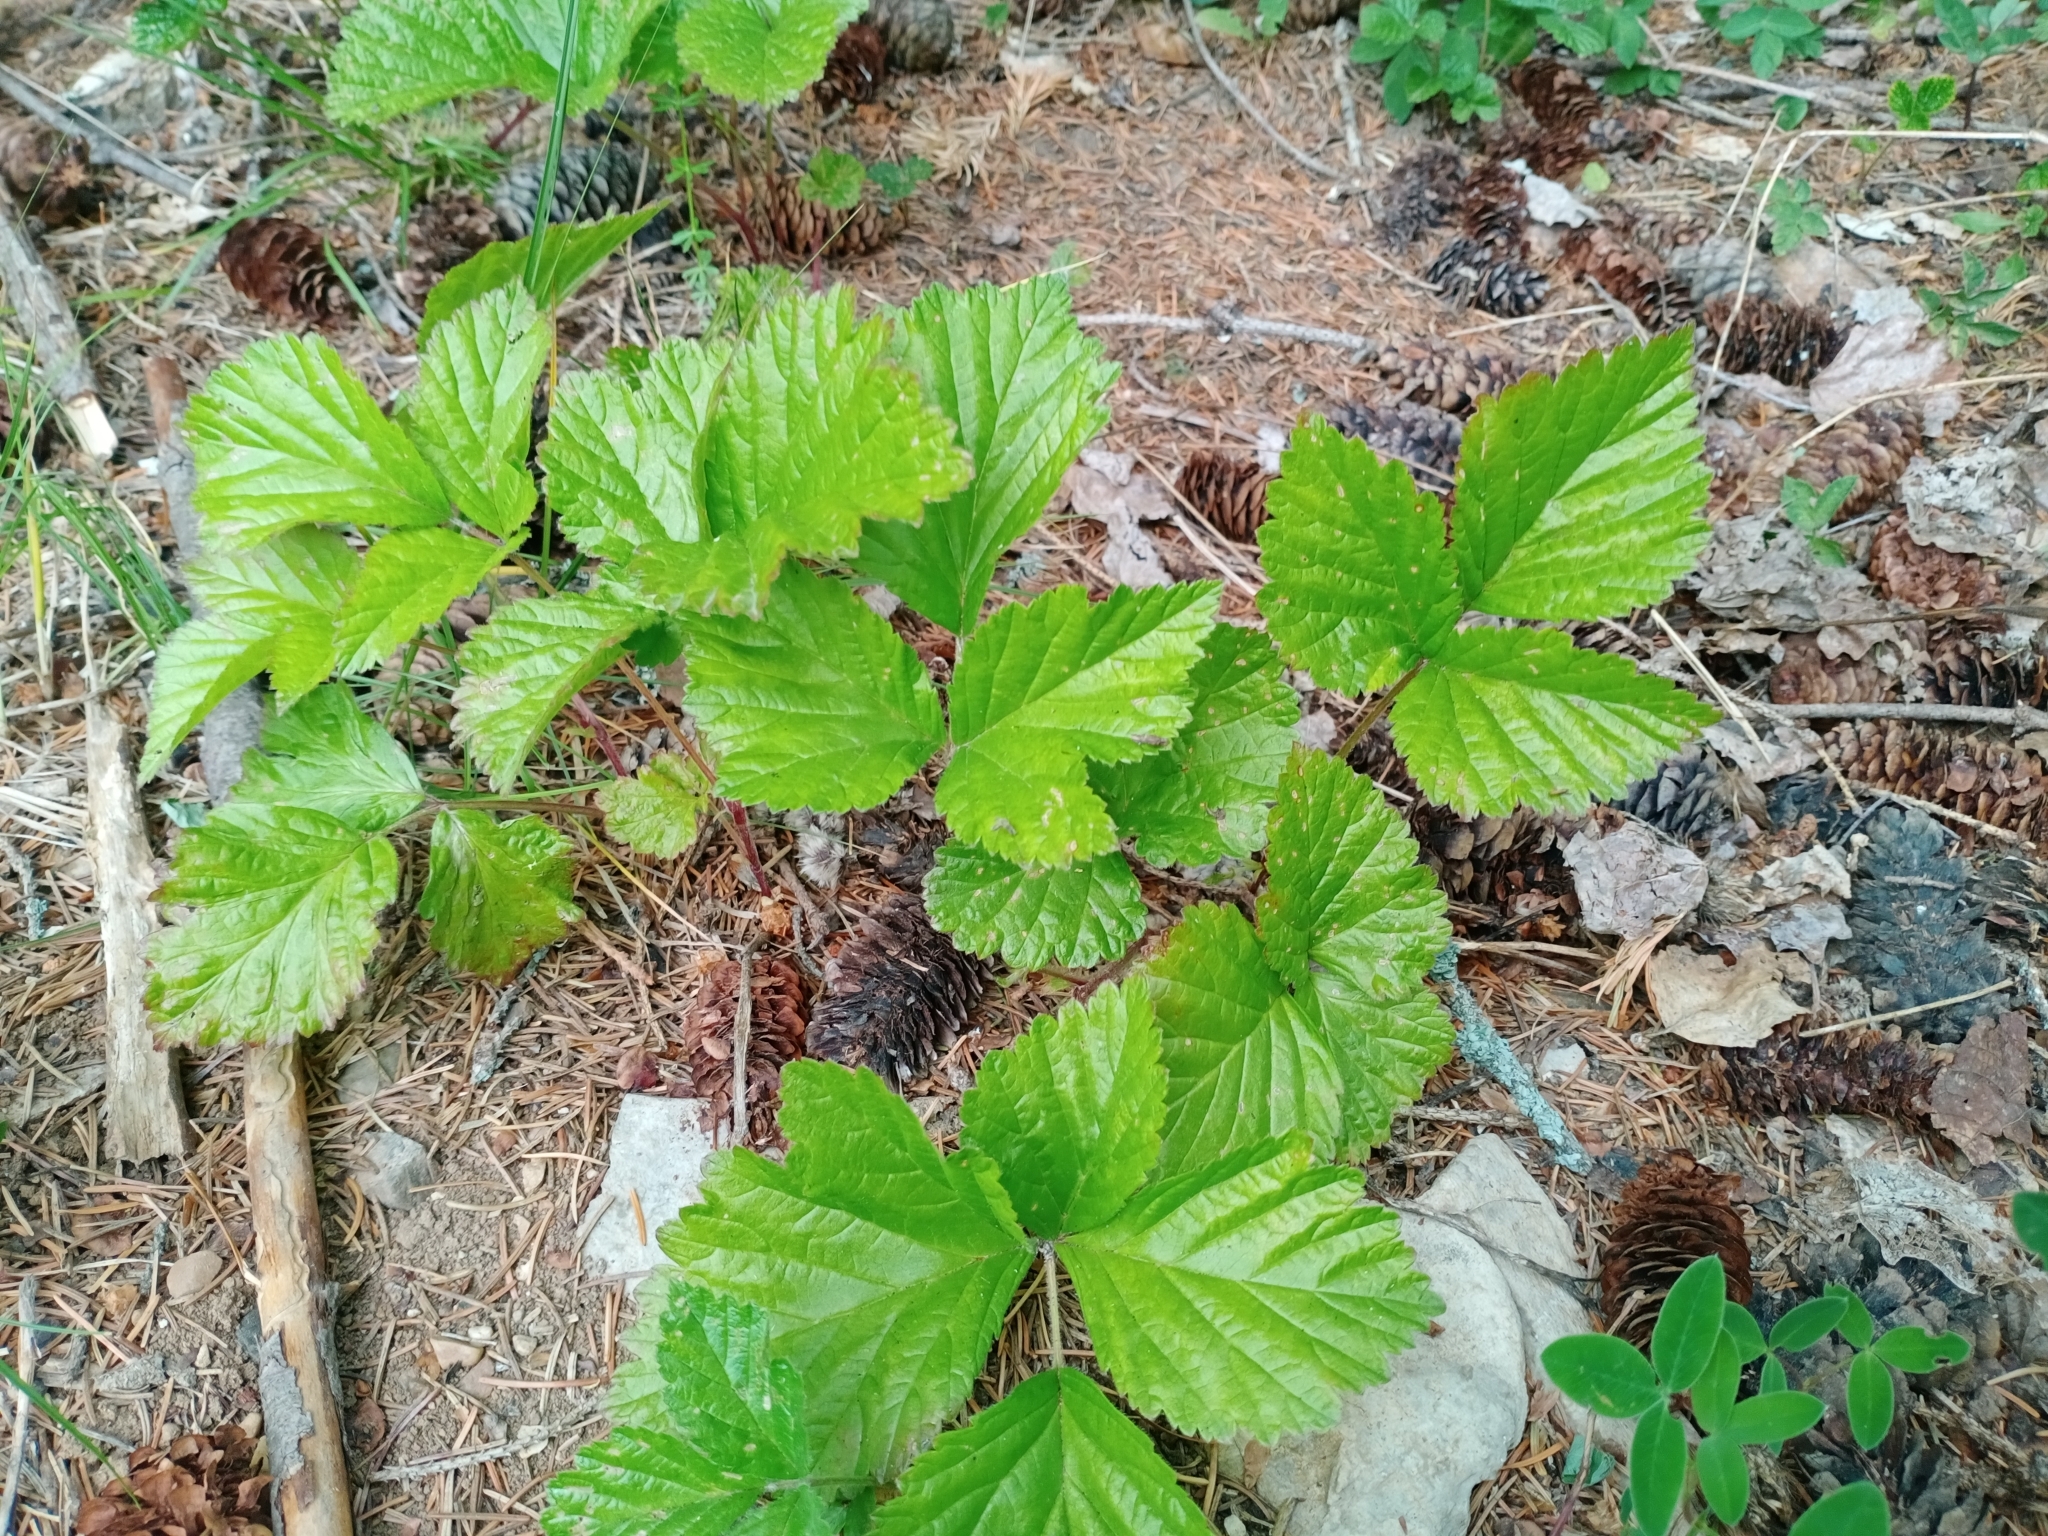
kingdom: Plantae
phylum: Tracheophyta
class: Magnoliopsida
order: Rosales
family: Rosaceae
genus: Rubus
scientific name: Rubus saxatilis
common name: Stone bramble
